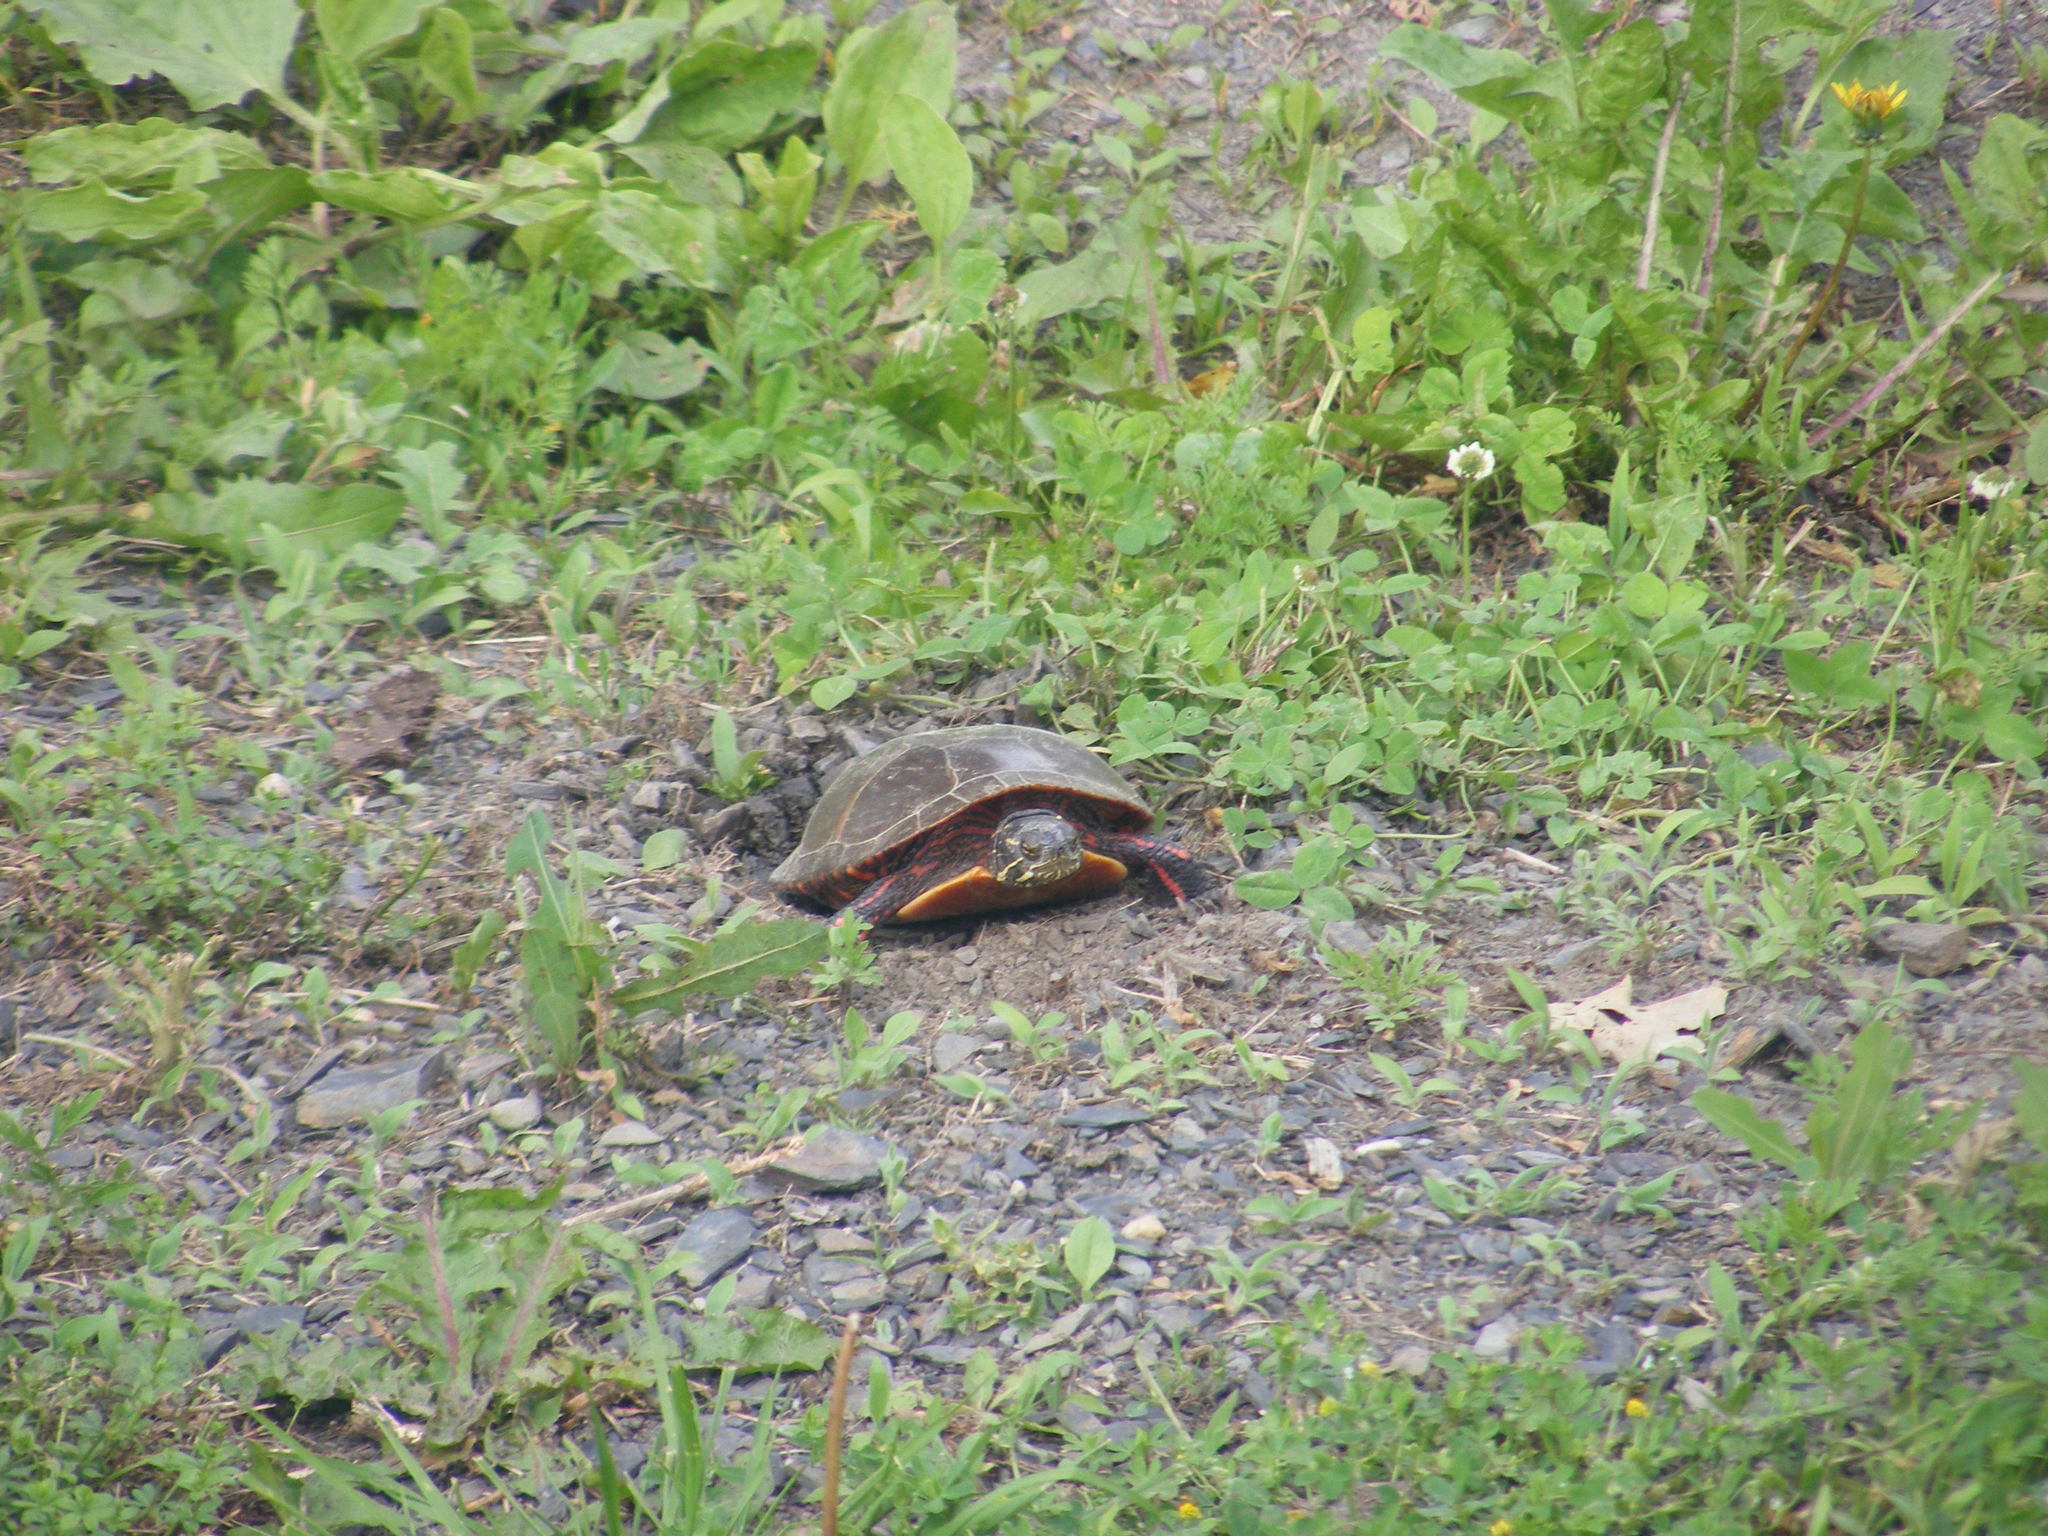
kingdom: Animalia
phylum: Chordata
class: Testudines
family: Emydidae
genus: Chrysemys
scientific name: Chrysemys picta
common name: Painted turtle
